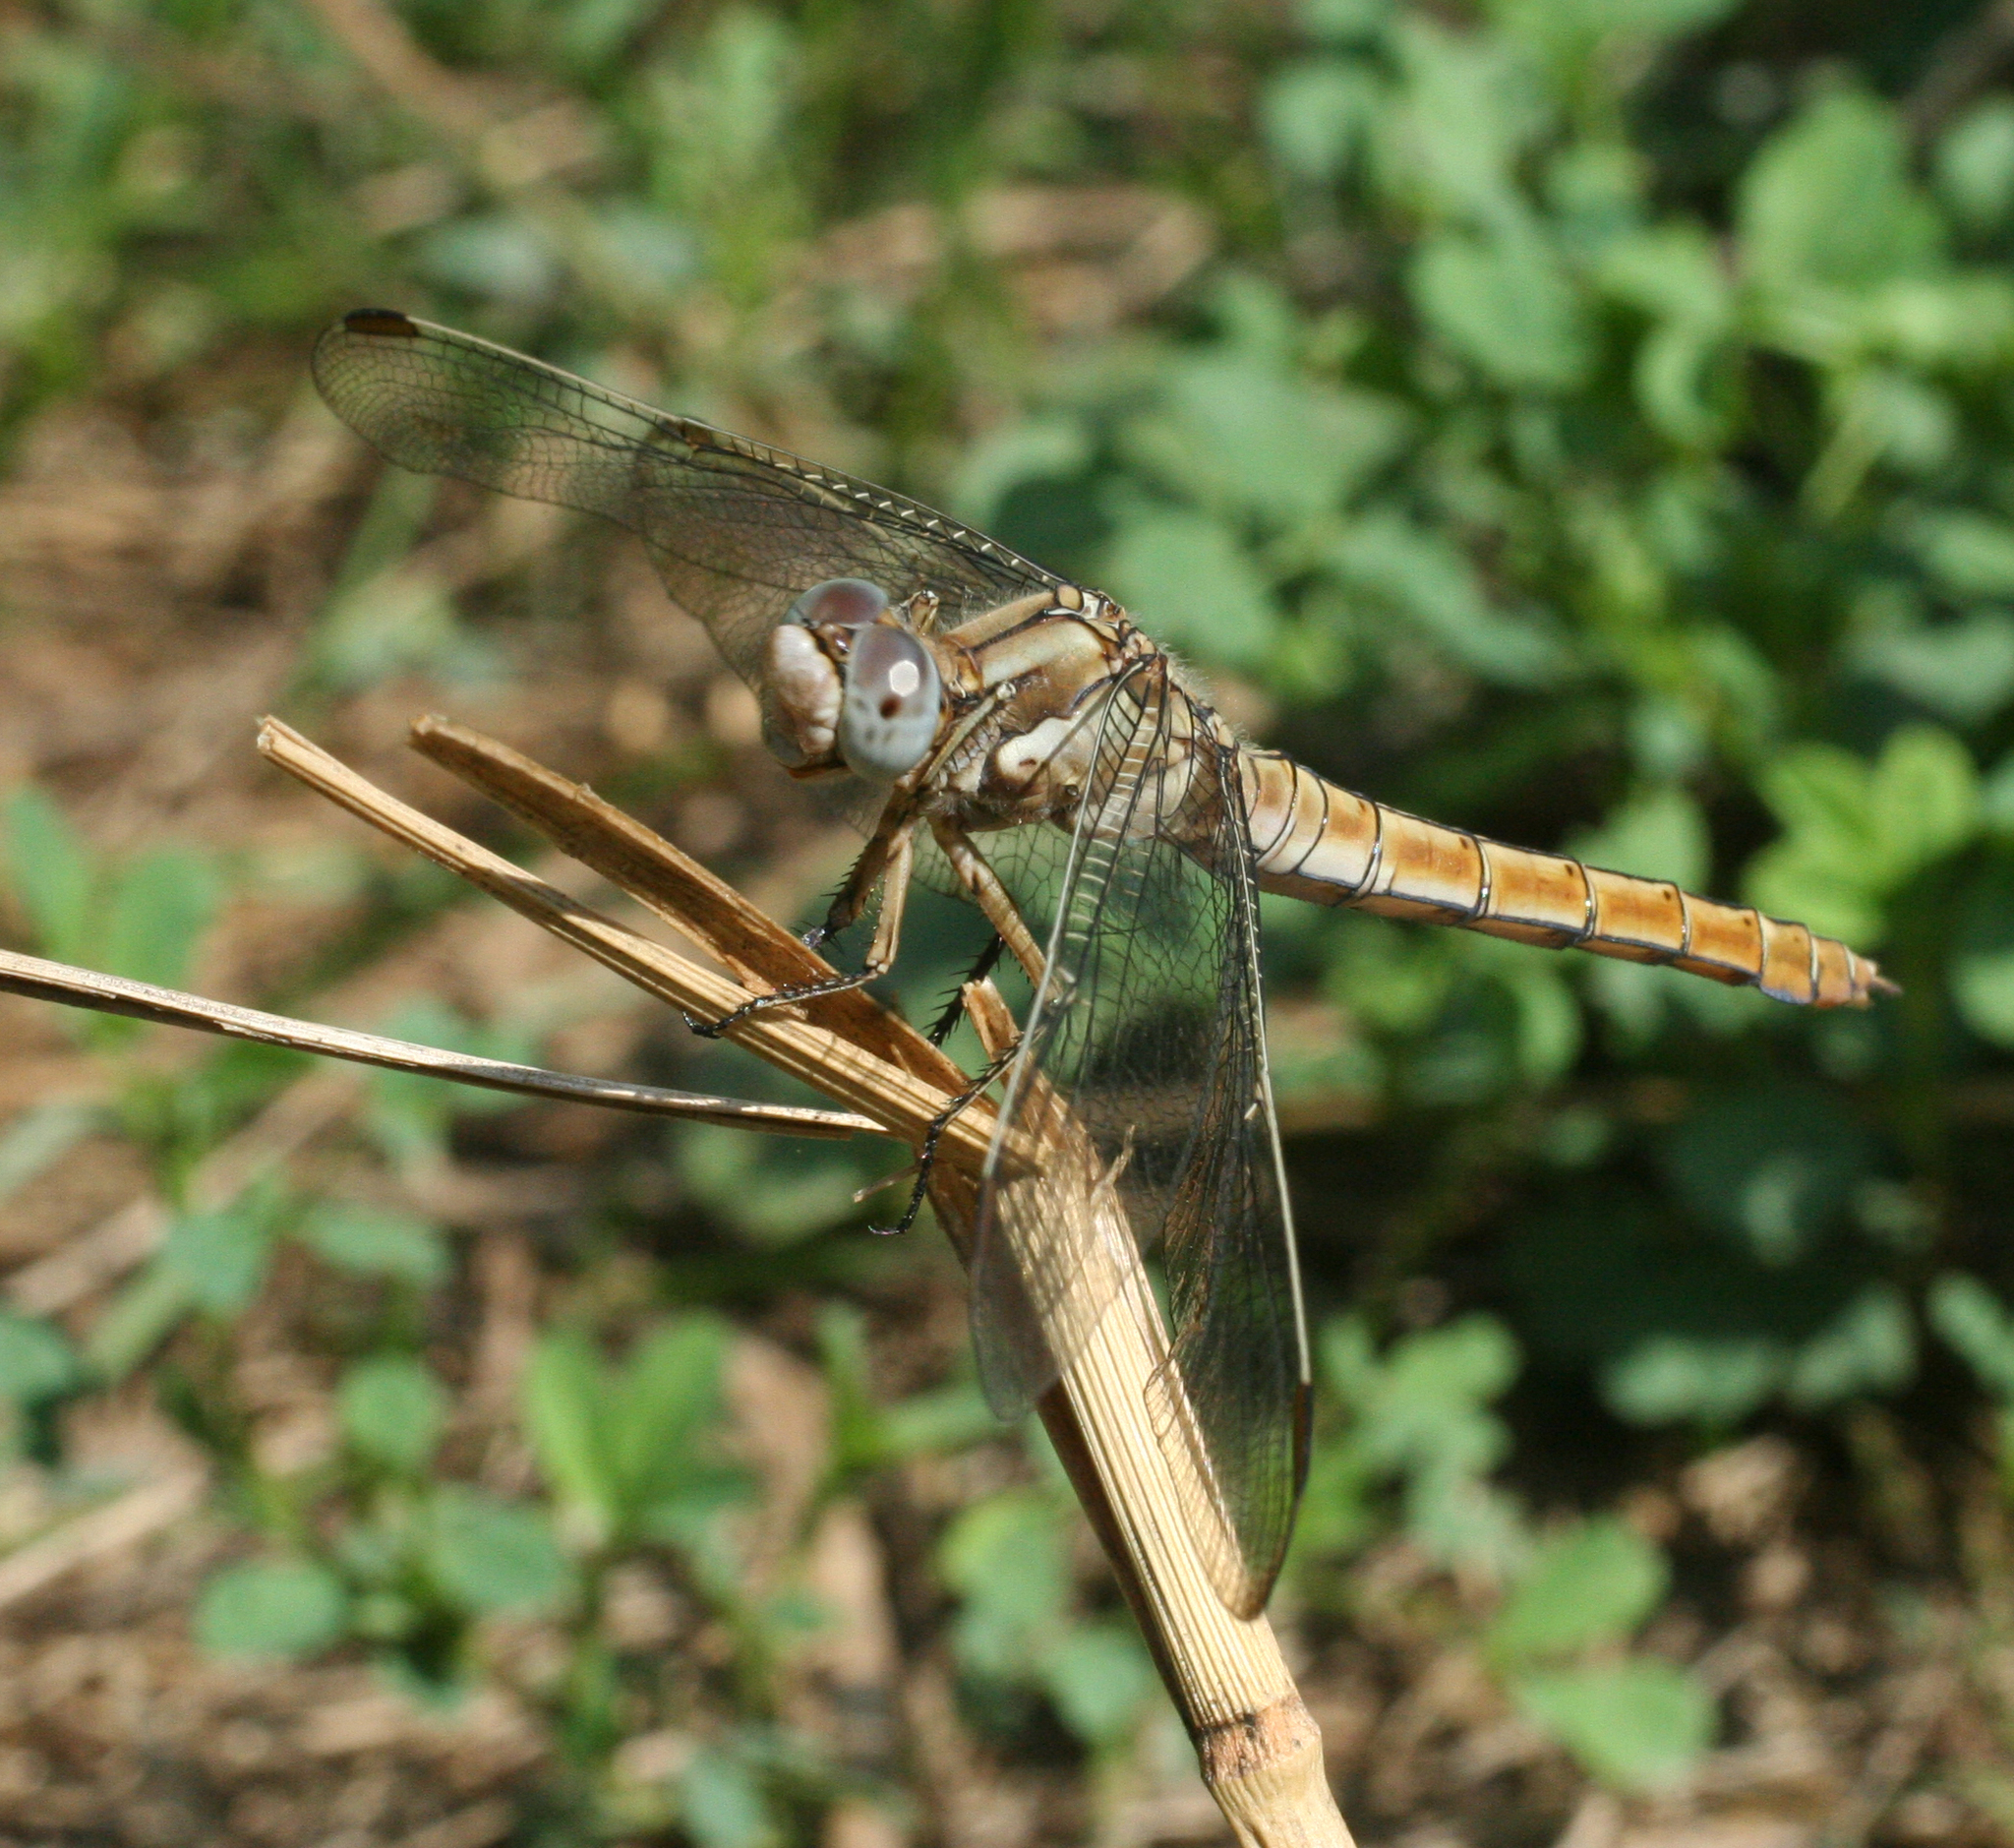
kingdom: Animalia
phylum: Arthropoda
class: Insecta
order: Odonata
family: Libellulidae
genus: Orthetrum
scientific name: Orthetrum brunneum
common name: Southern skimmer
